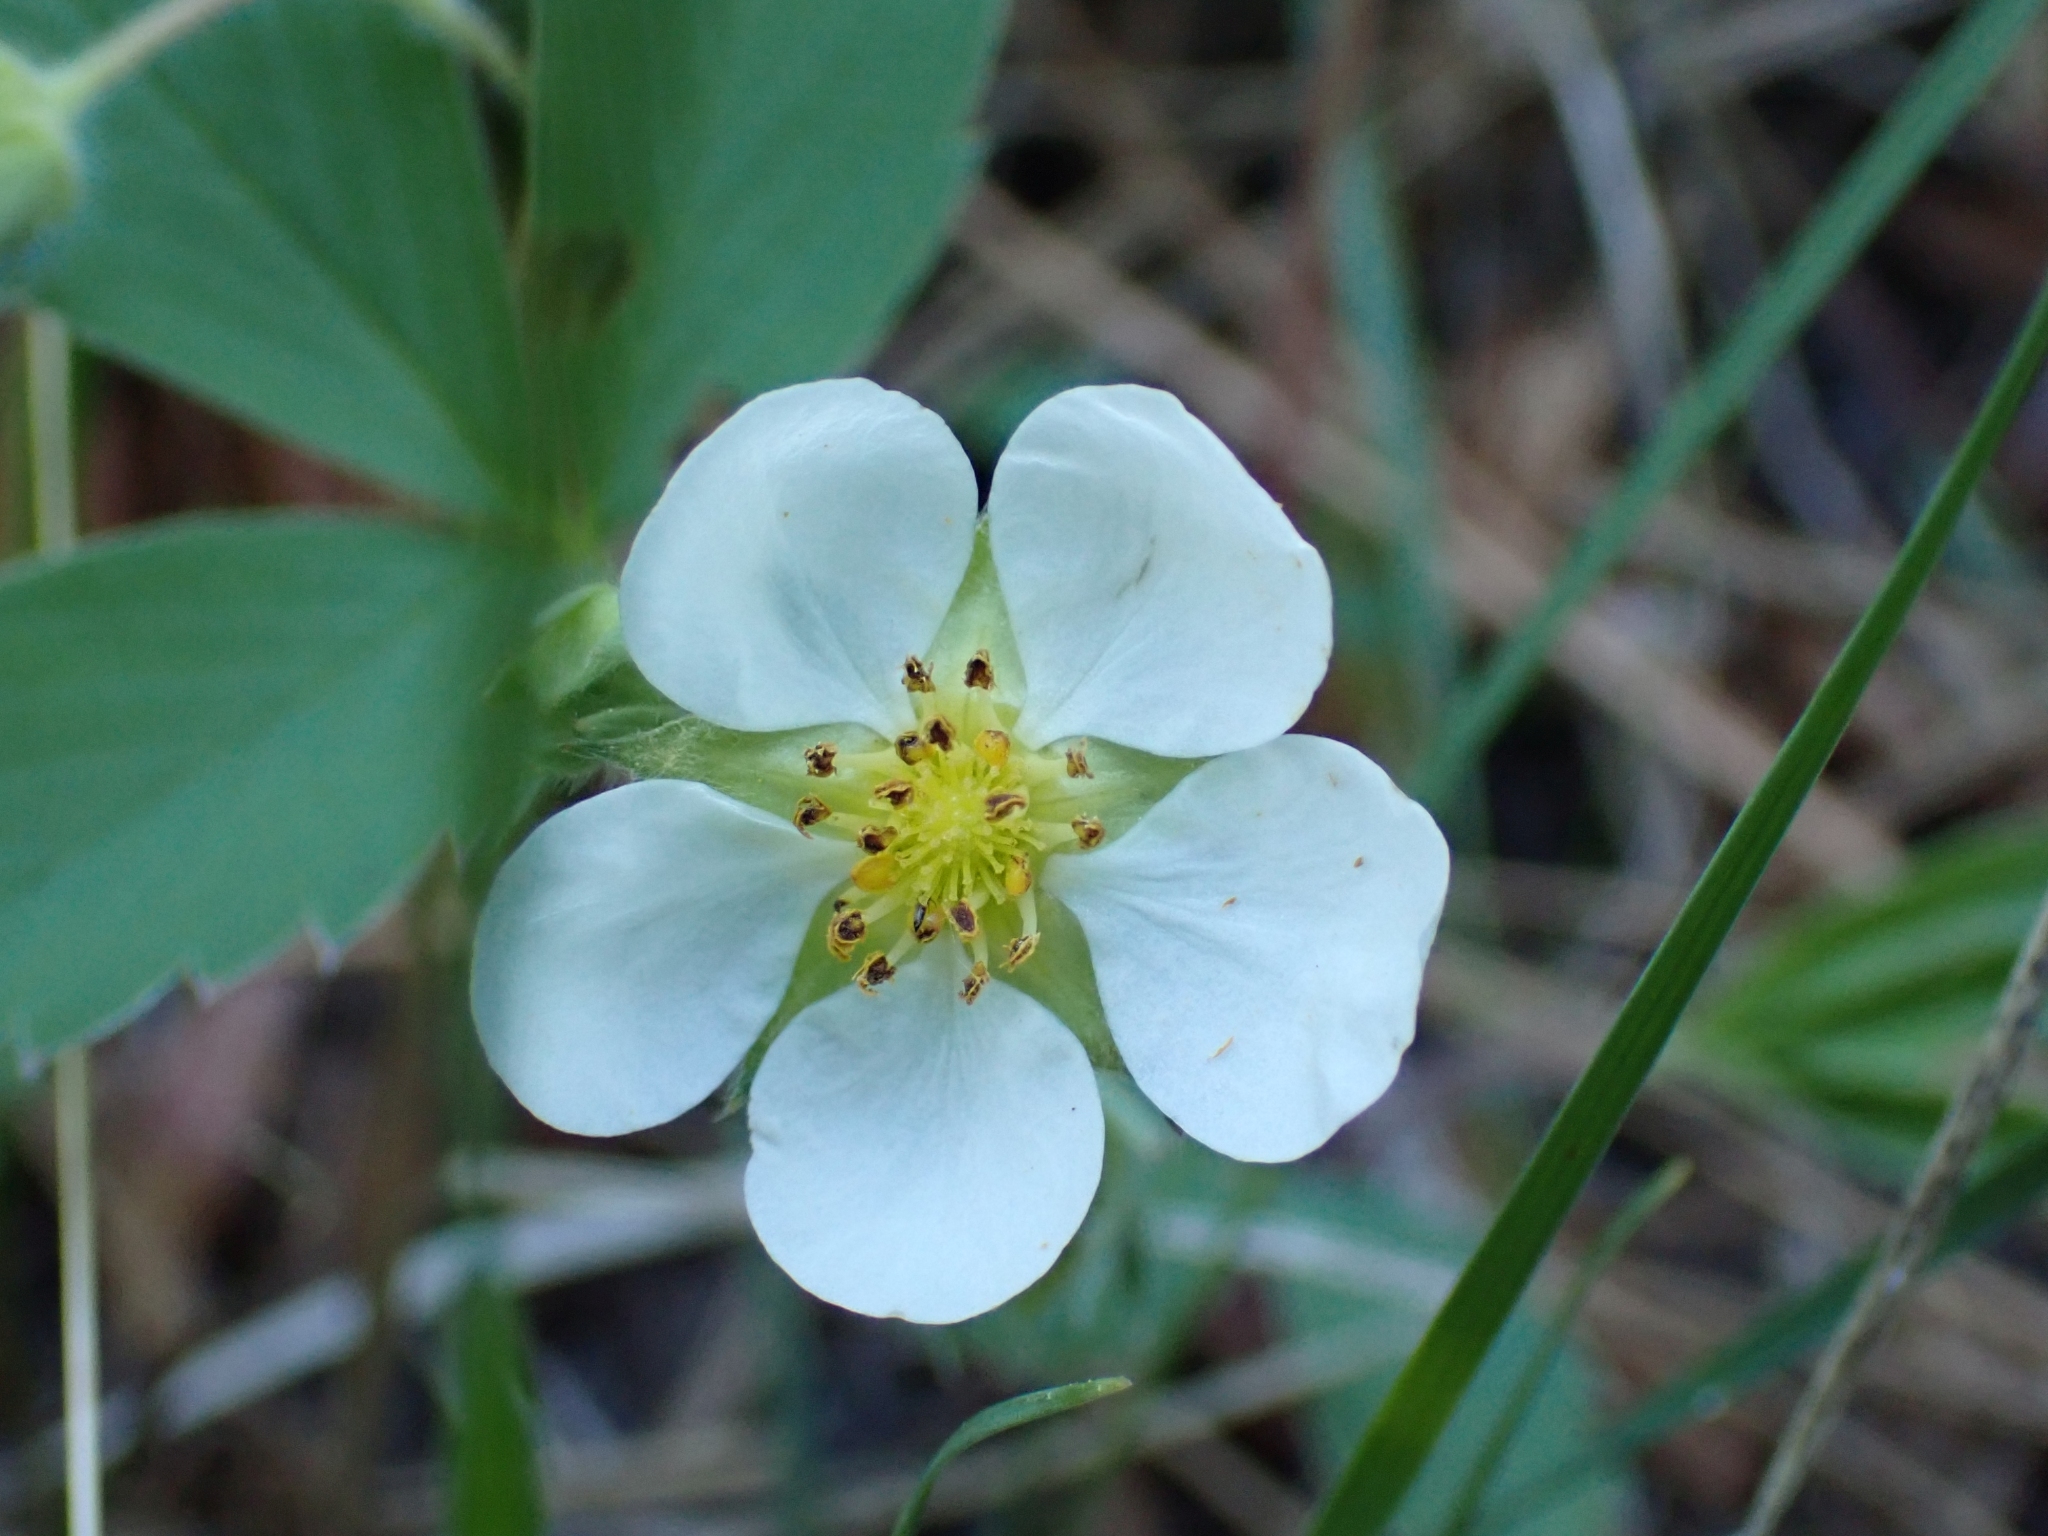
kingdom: Plantae
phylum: Tracheophyta
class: Magnoliopsida
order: Rosales
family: Rosaceae
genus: Fragaria
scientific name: Fragaria virginiana
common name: Thickleaved wild strawberry
